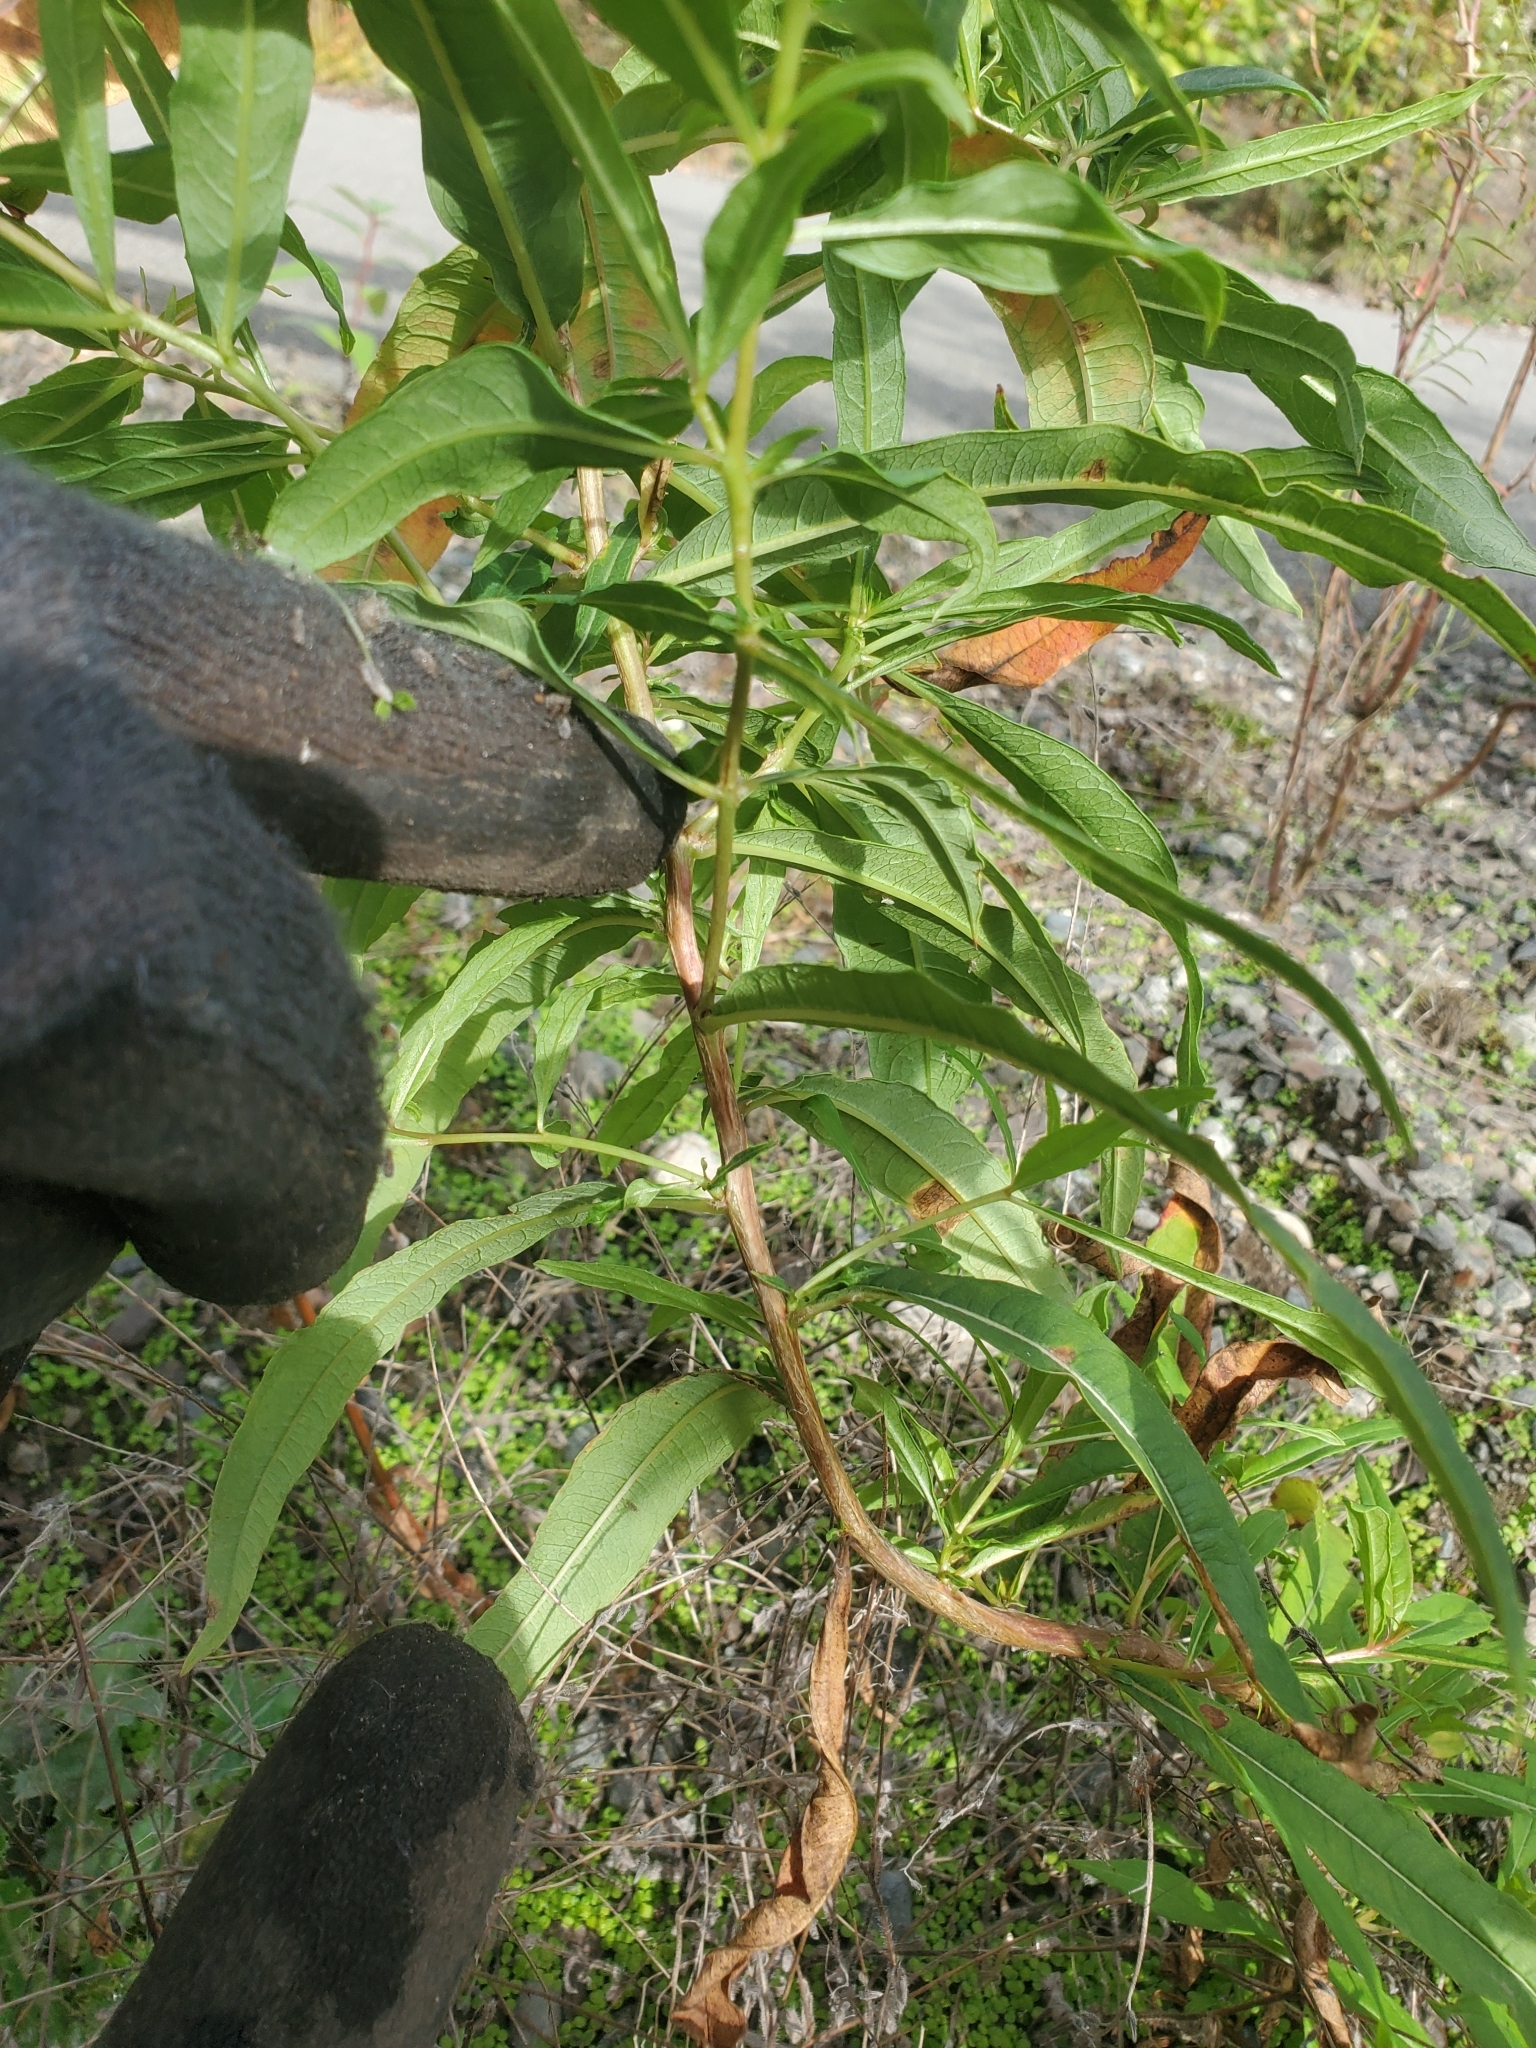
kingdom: Plantae
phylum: Tracheophyta
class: Magnoliopsida
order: Myrtales
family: Onagraceae
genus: Chamaenerion
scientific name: Chamaenerion angustifolium
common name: Fireweed
